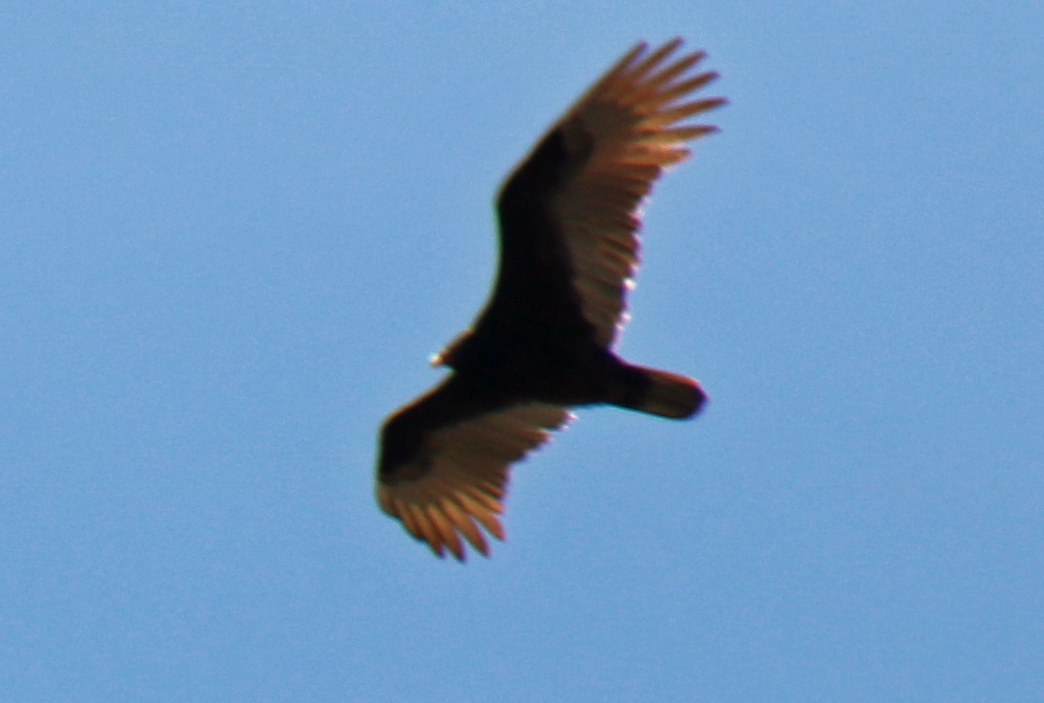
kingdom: Animalia
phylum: Chordata
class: Aves
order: Accipitriformes
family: Cathartidae
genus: Cathartes
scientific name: Cathartes aura
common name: Turkey vulture
